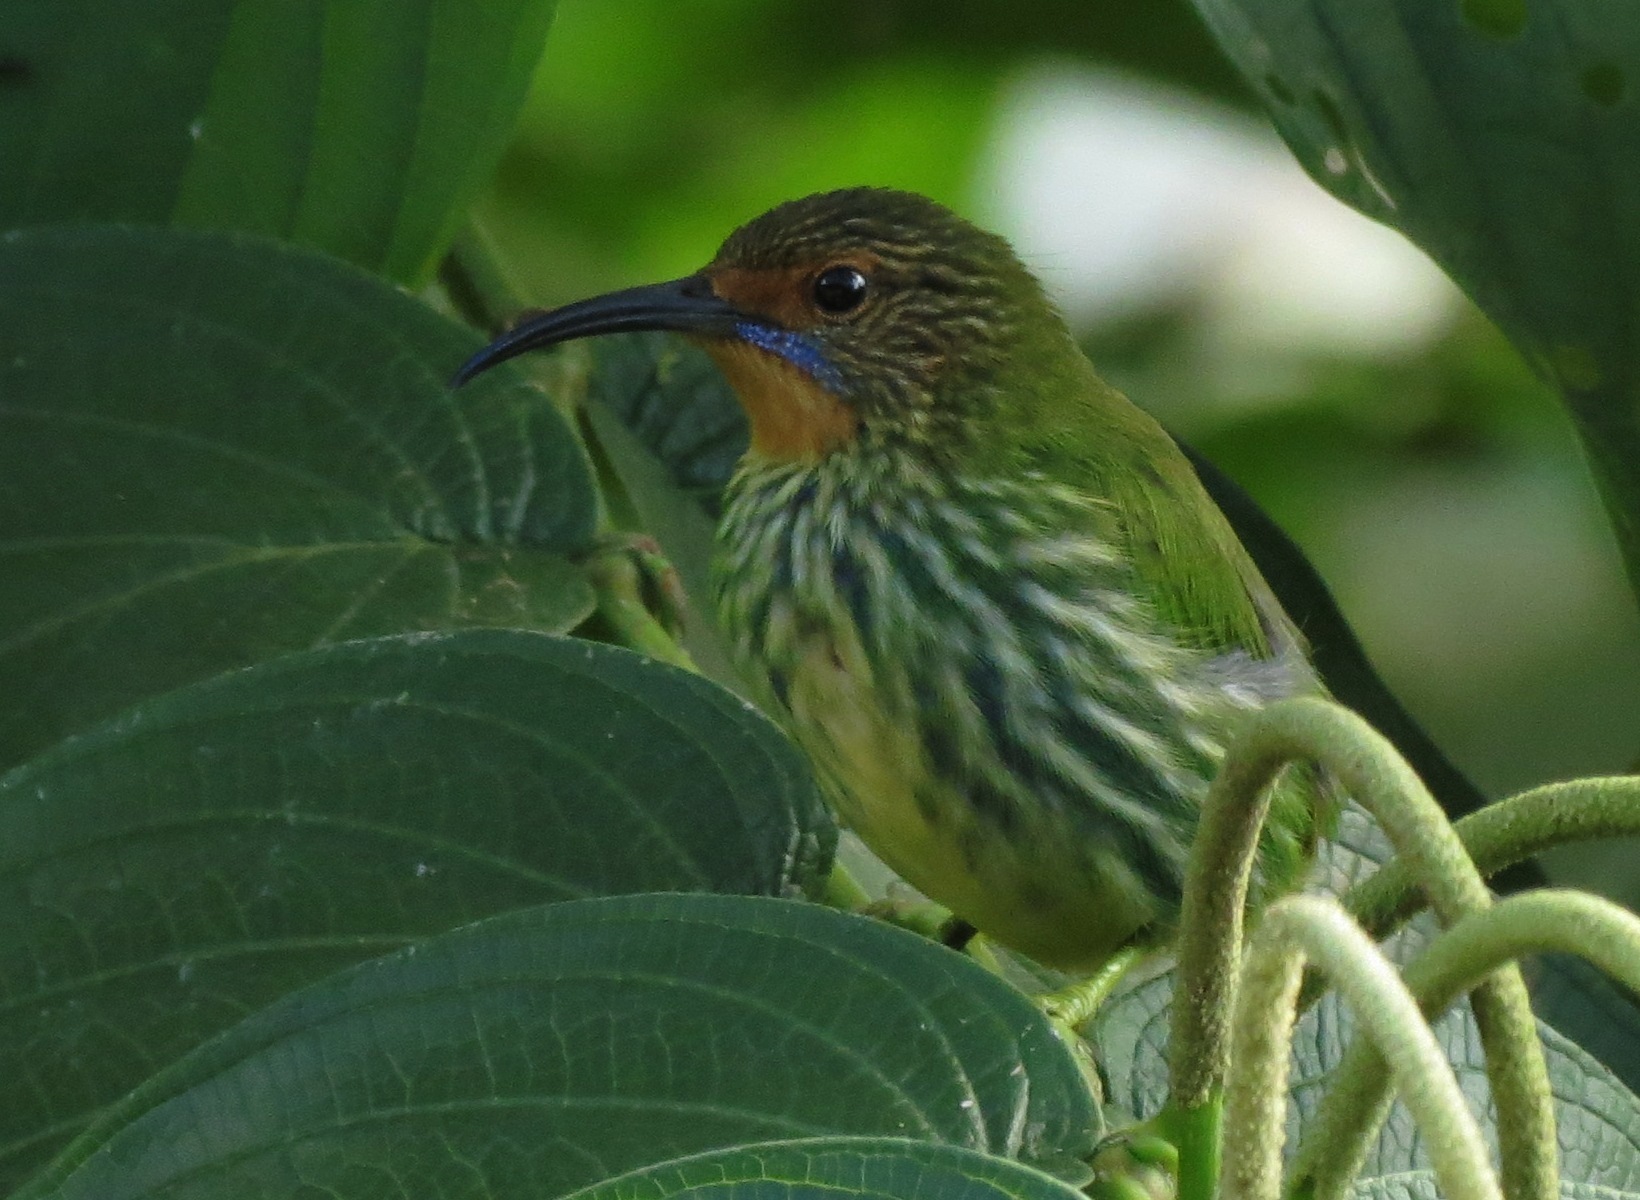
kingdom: Animalia
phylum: Chordata
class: Aves
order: Passeriformes
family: Thraupidae
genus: Cyanerpes
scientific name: Cyanerpes caeruleus
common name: Purple honeycreeper
